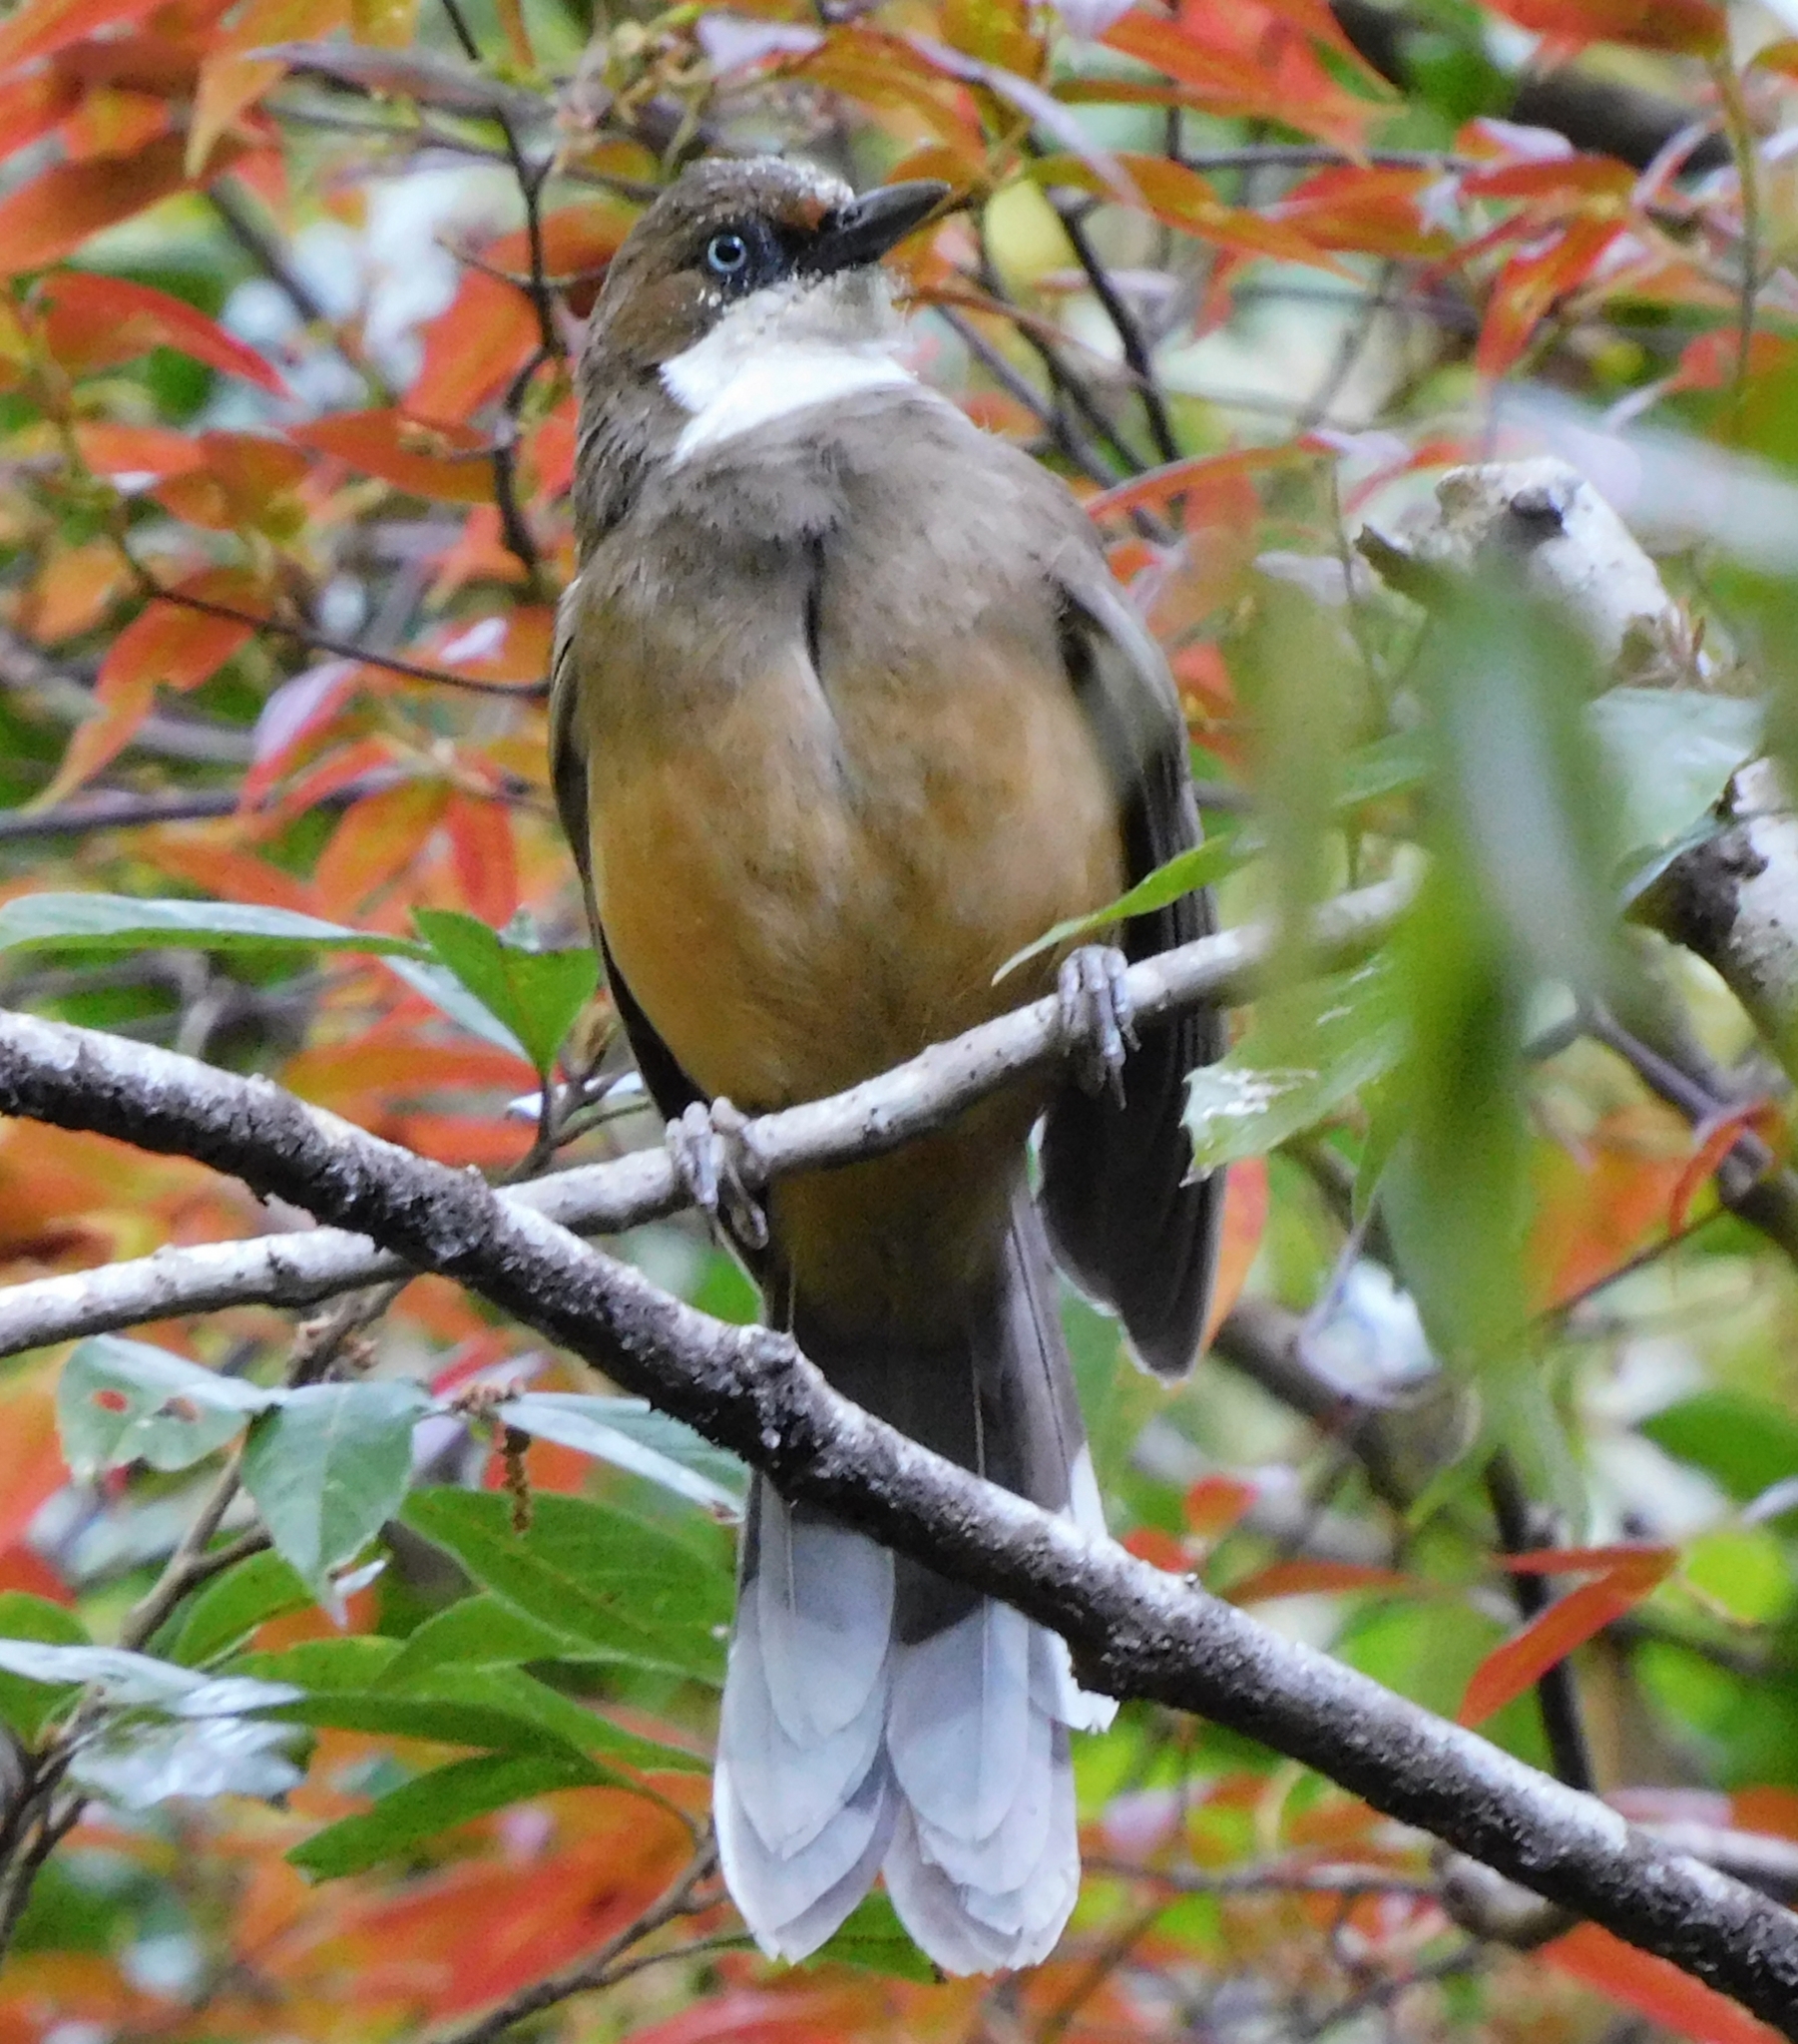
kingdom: Animalia
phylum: Chordata
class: Aves
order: Passeriformes
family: Leiothrichidae
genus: Garrulax
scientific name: Garrulax albogularis
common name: White-throated laughingthrush
